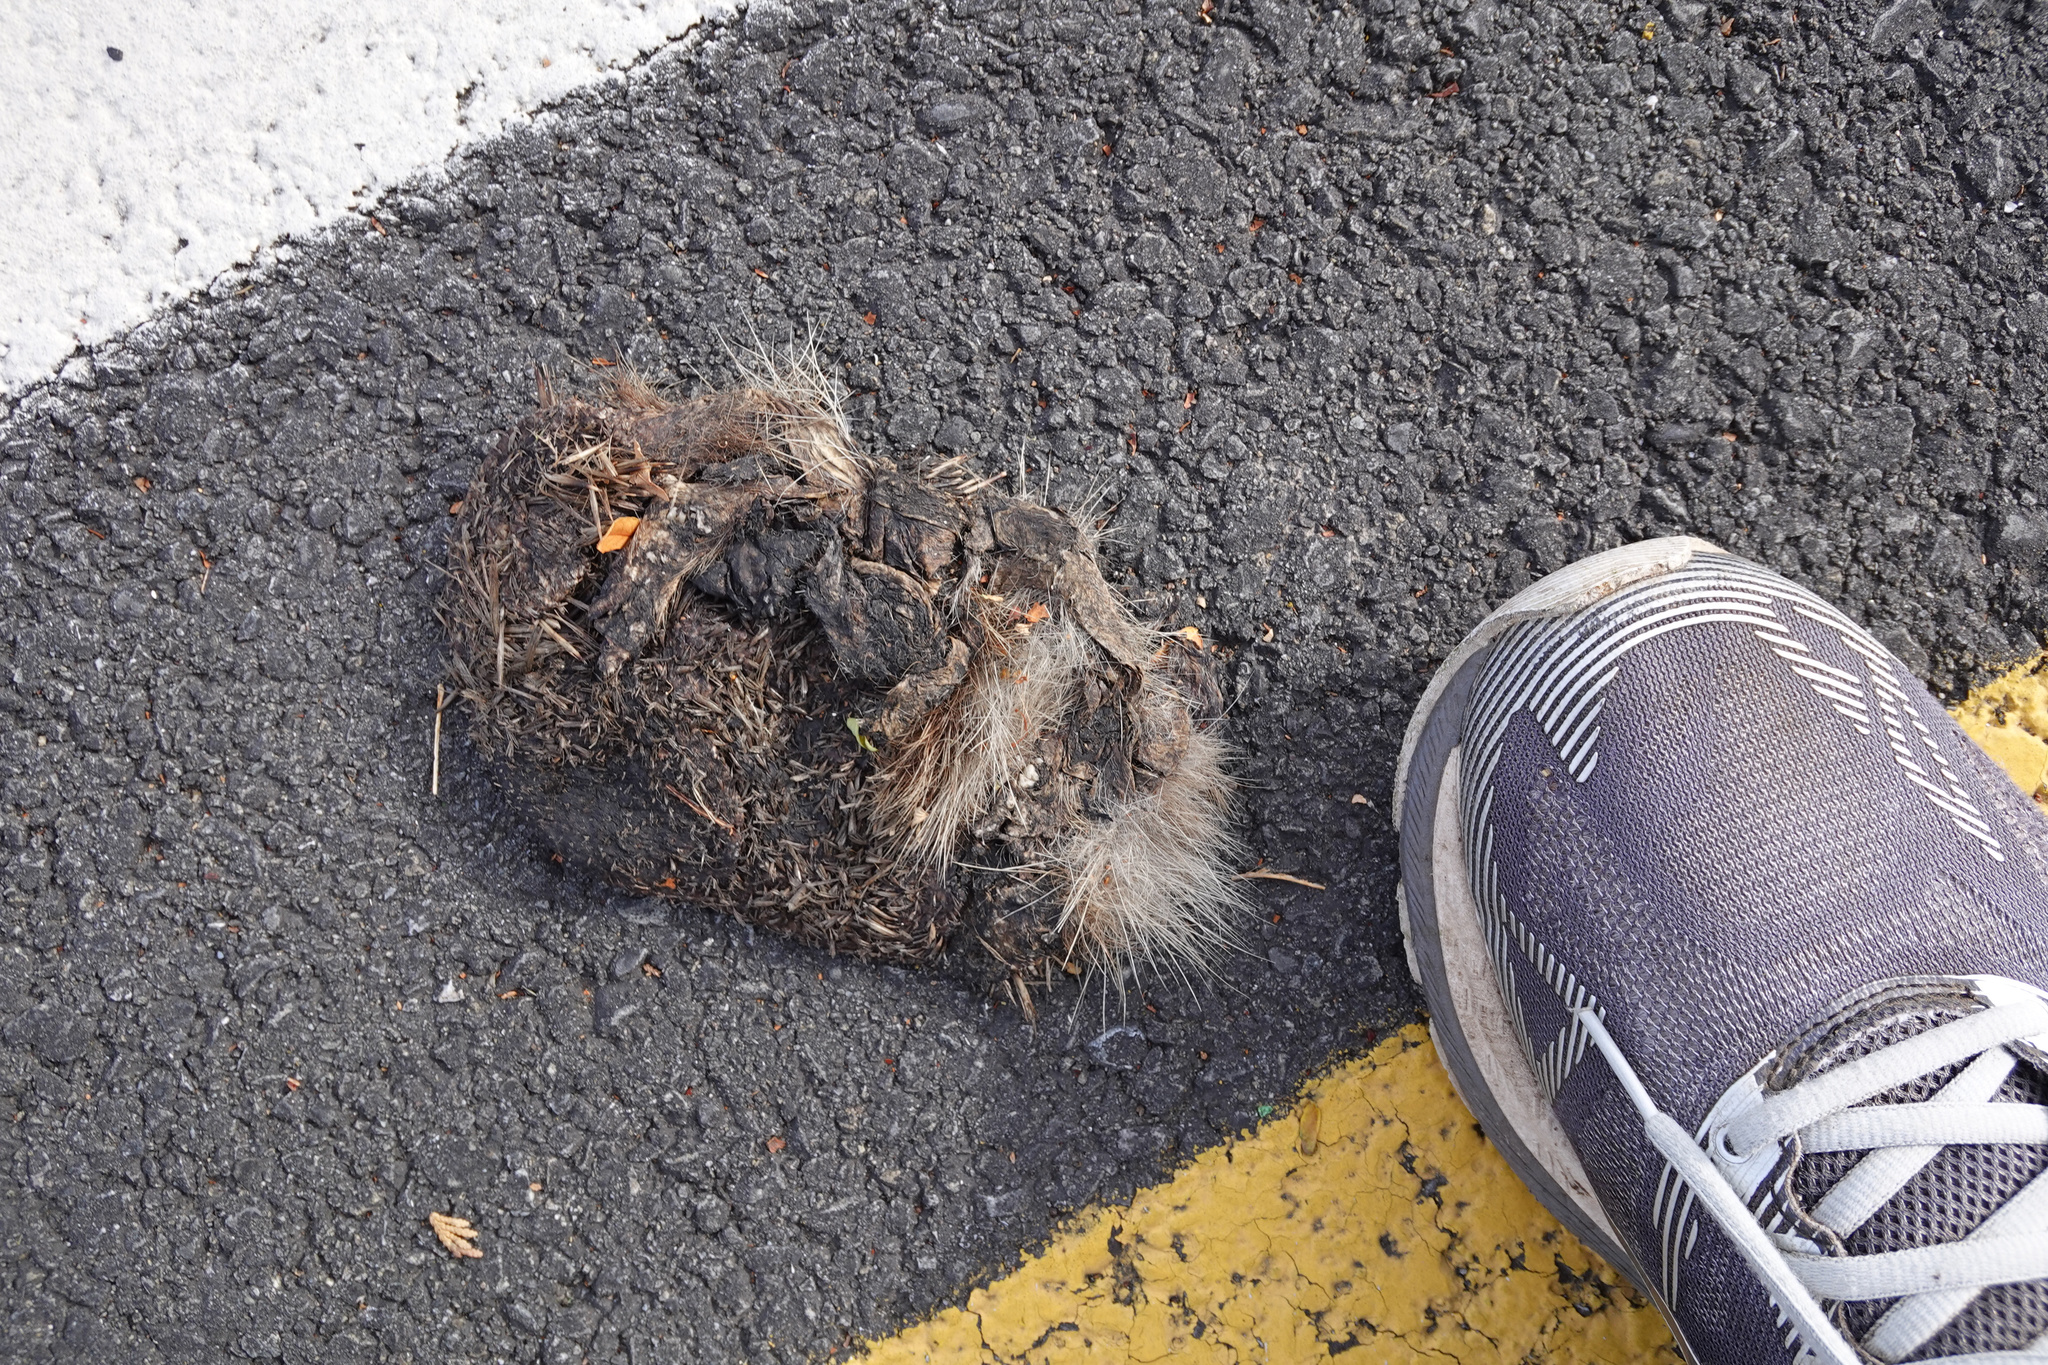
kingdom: Animalia
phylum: Chordata
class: Mammalia
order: Erinaceomorpha
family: Erinaceidae
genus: Erinaceus
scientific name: Erinaceus europaeus
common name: West european hedgehog
